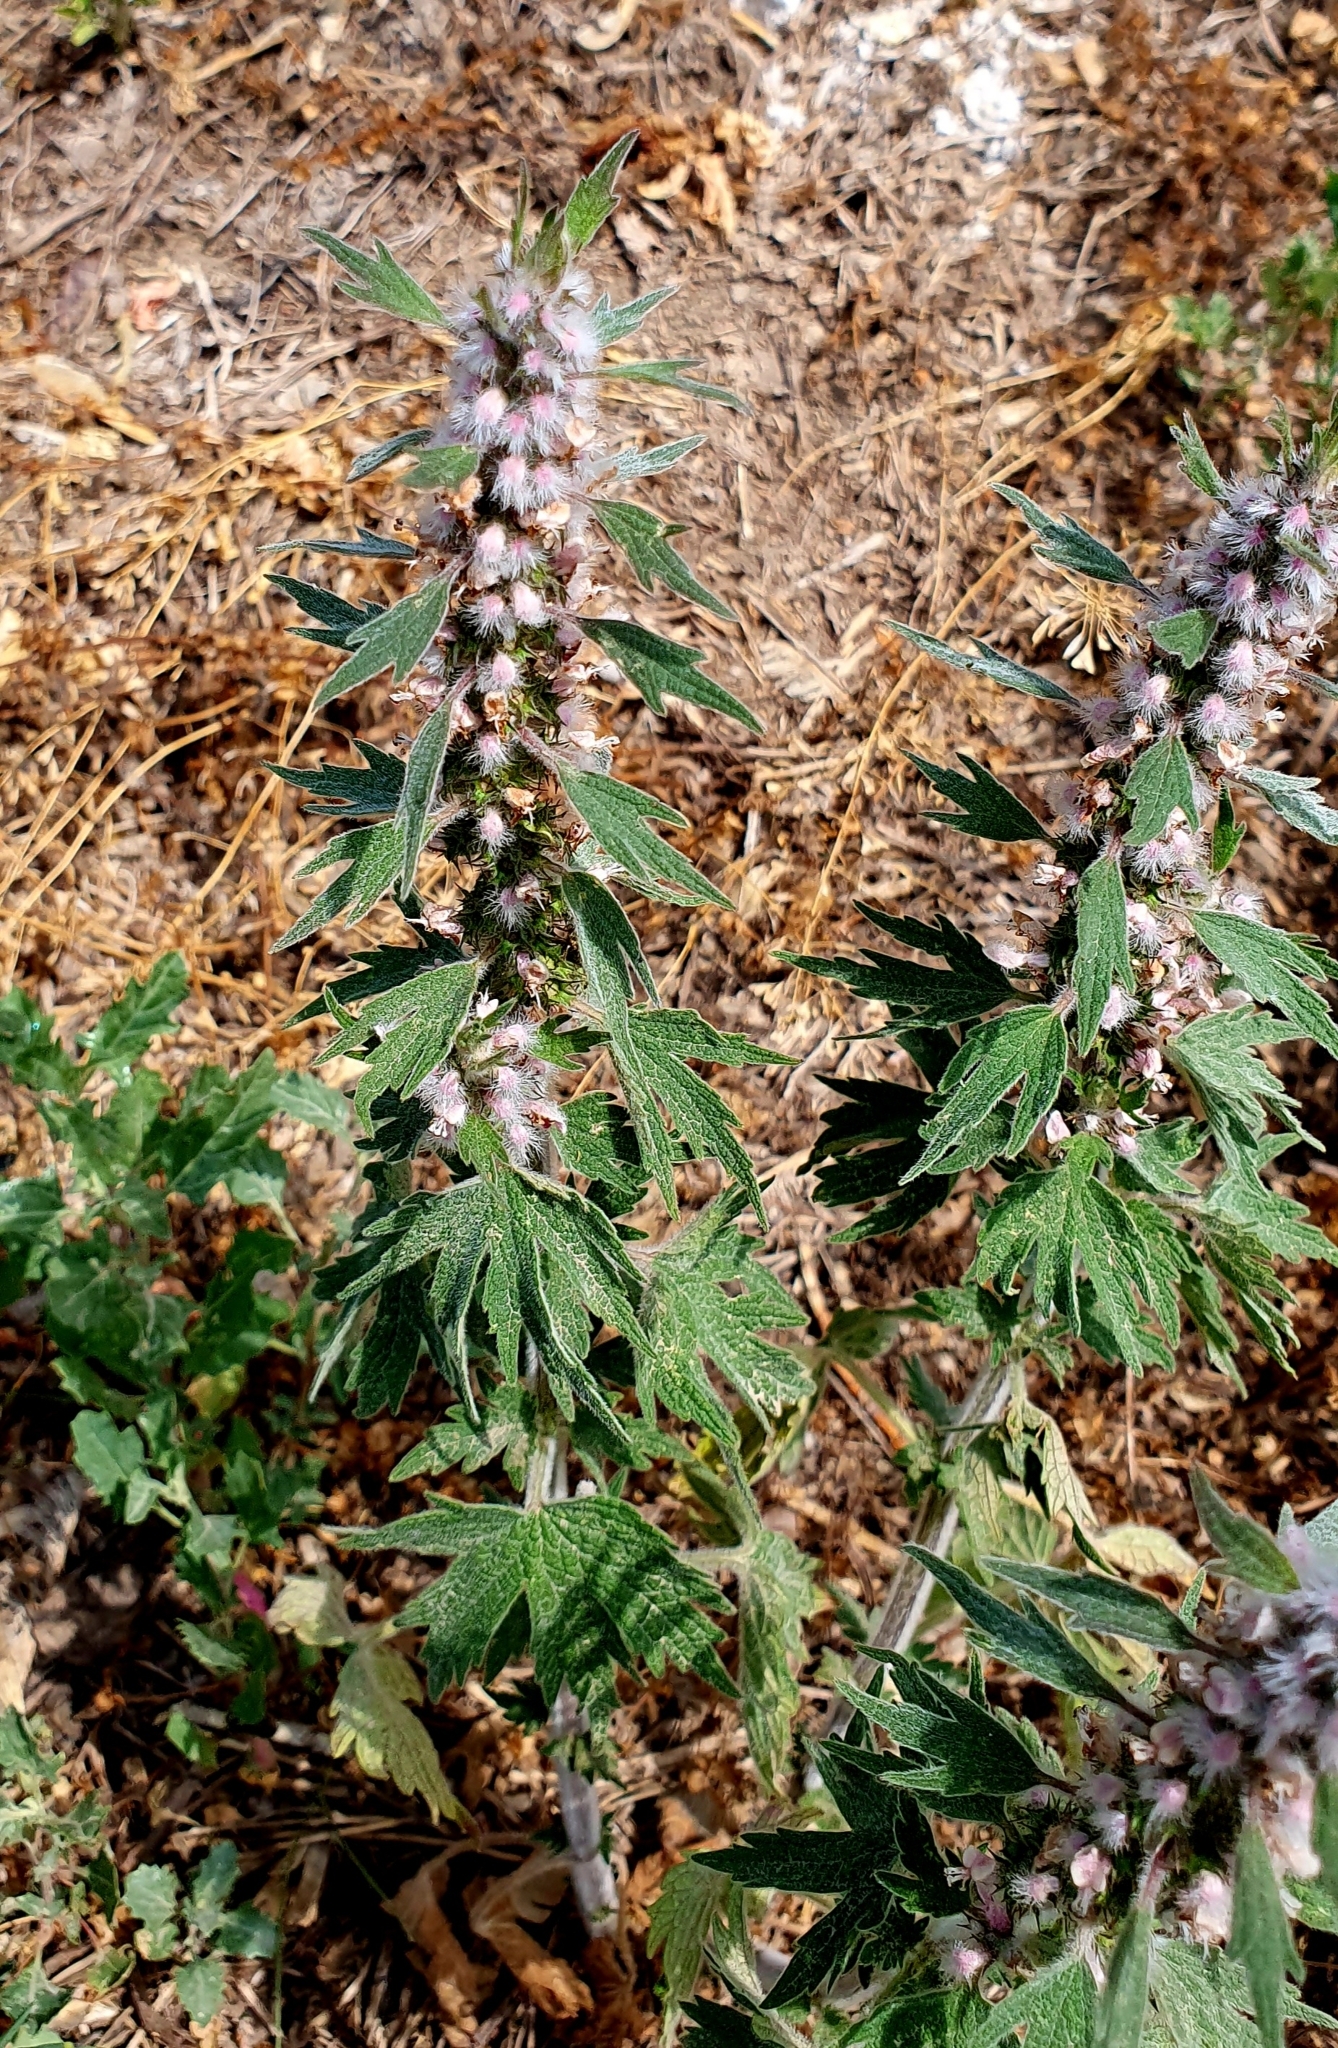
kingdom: Plantae
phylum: Tracheophyta
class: Magnoliopsida
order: Lamiales
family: Lamiaceae
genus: Leonurus
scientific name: Leonurus quinquelobatus
